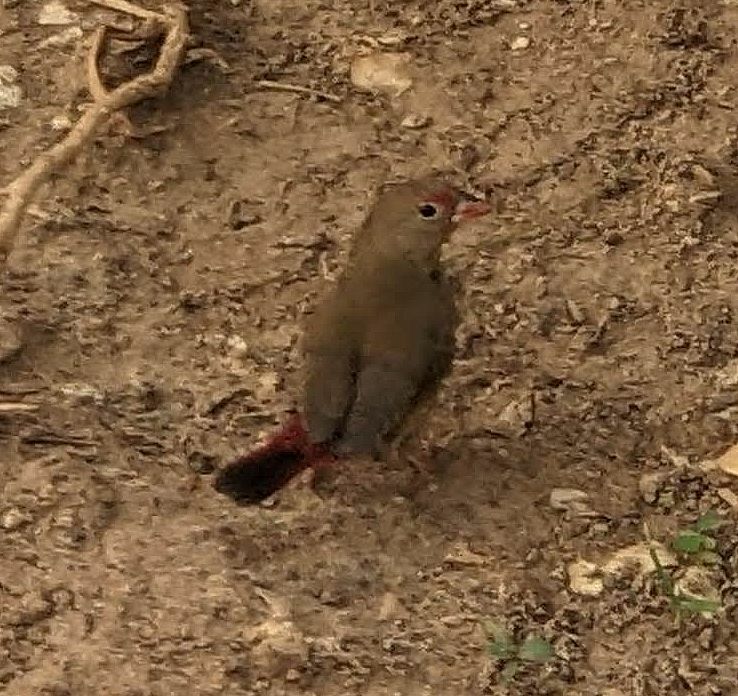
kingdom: Animalia
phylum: Chordata
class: Aves
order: Passeriformes
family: Estrildidae
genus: Lagonosticta
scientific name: Lagonosticta senegala
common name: Red-billed firefinch
